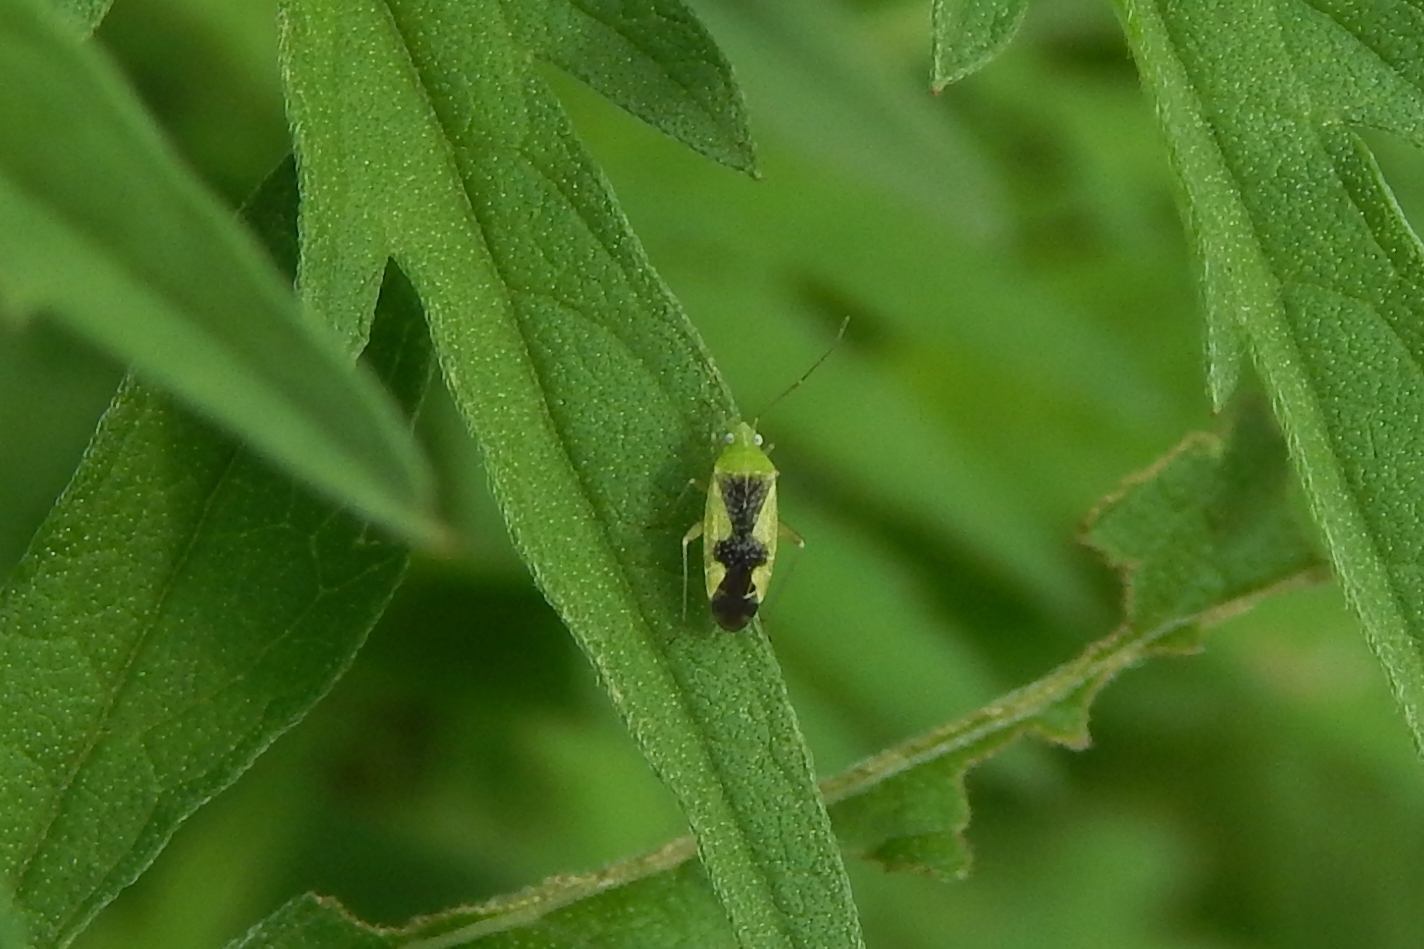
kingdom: Animalia
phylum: Arthropoda
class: Insecta
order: Hemiptera
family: Miridae
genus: Reuteroscopus
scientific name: Reuteroscopus ornatus
